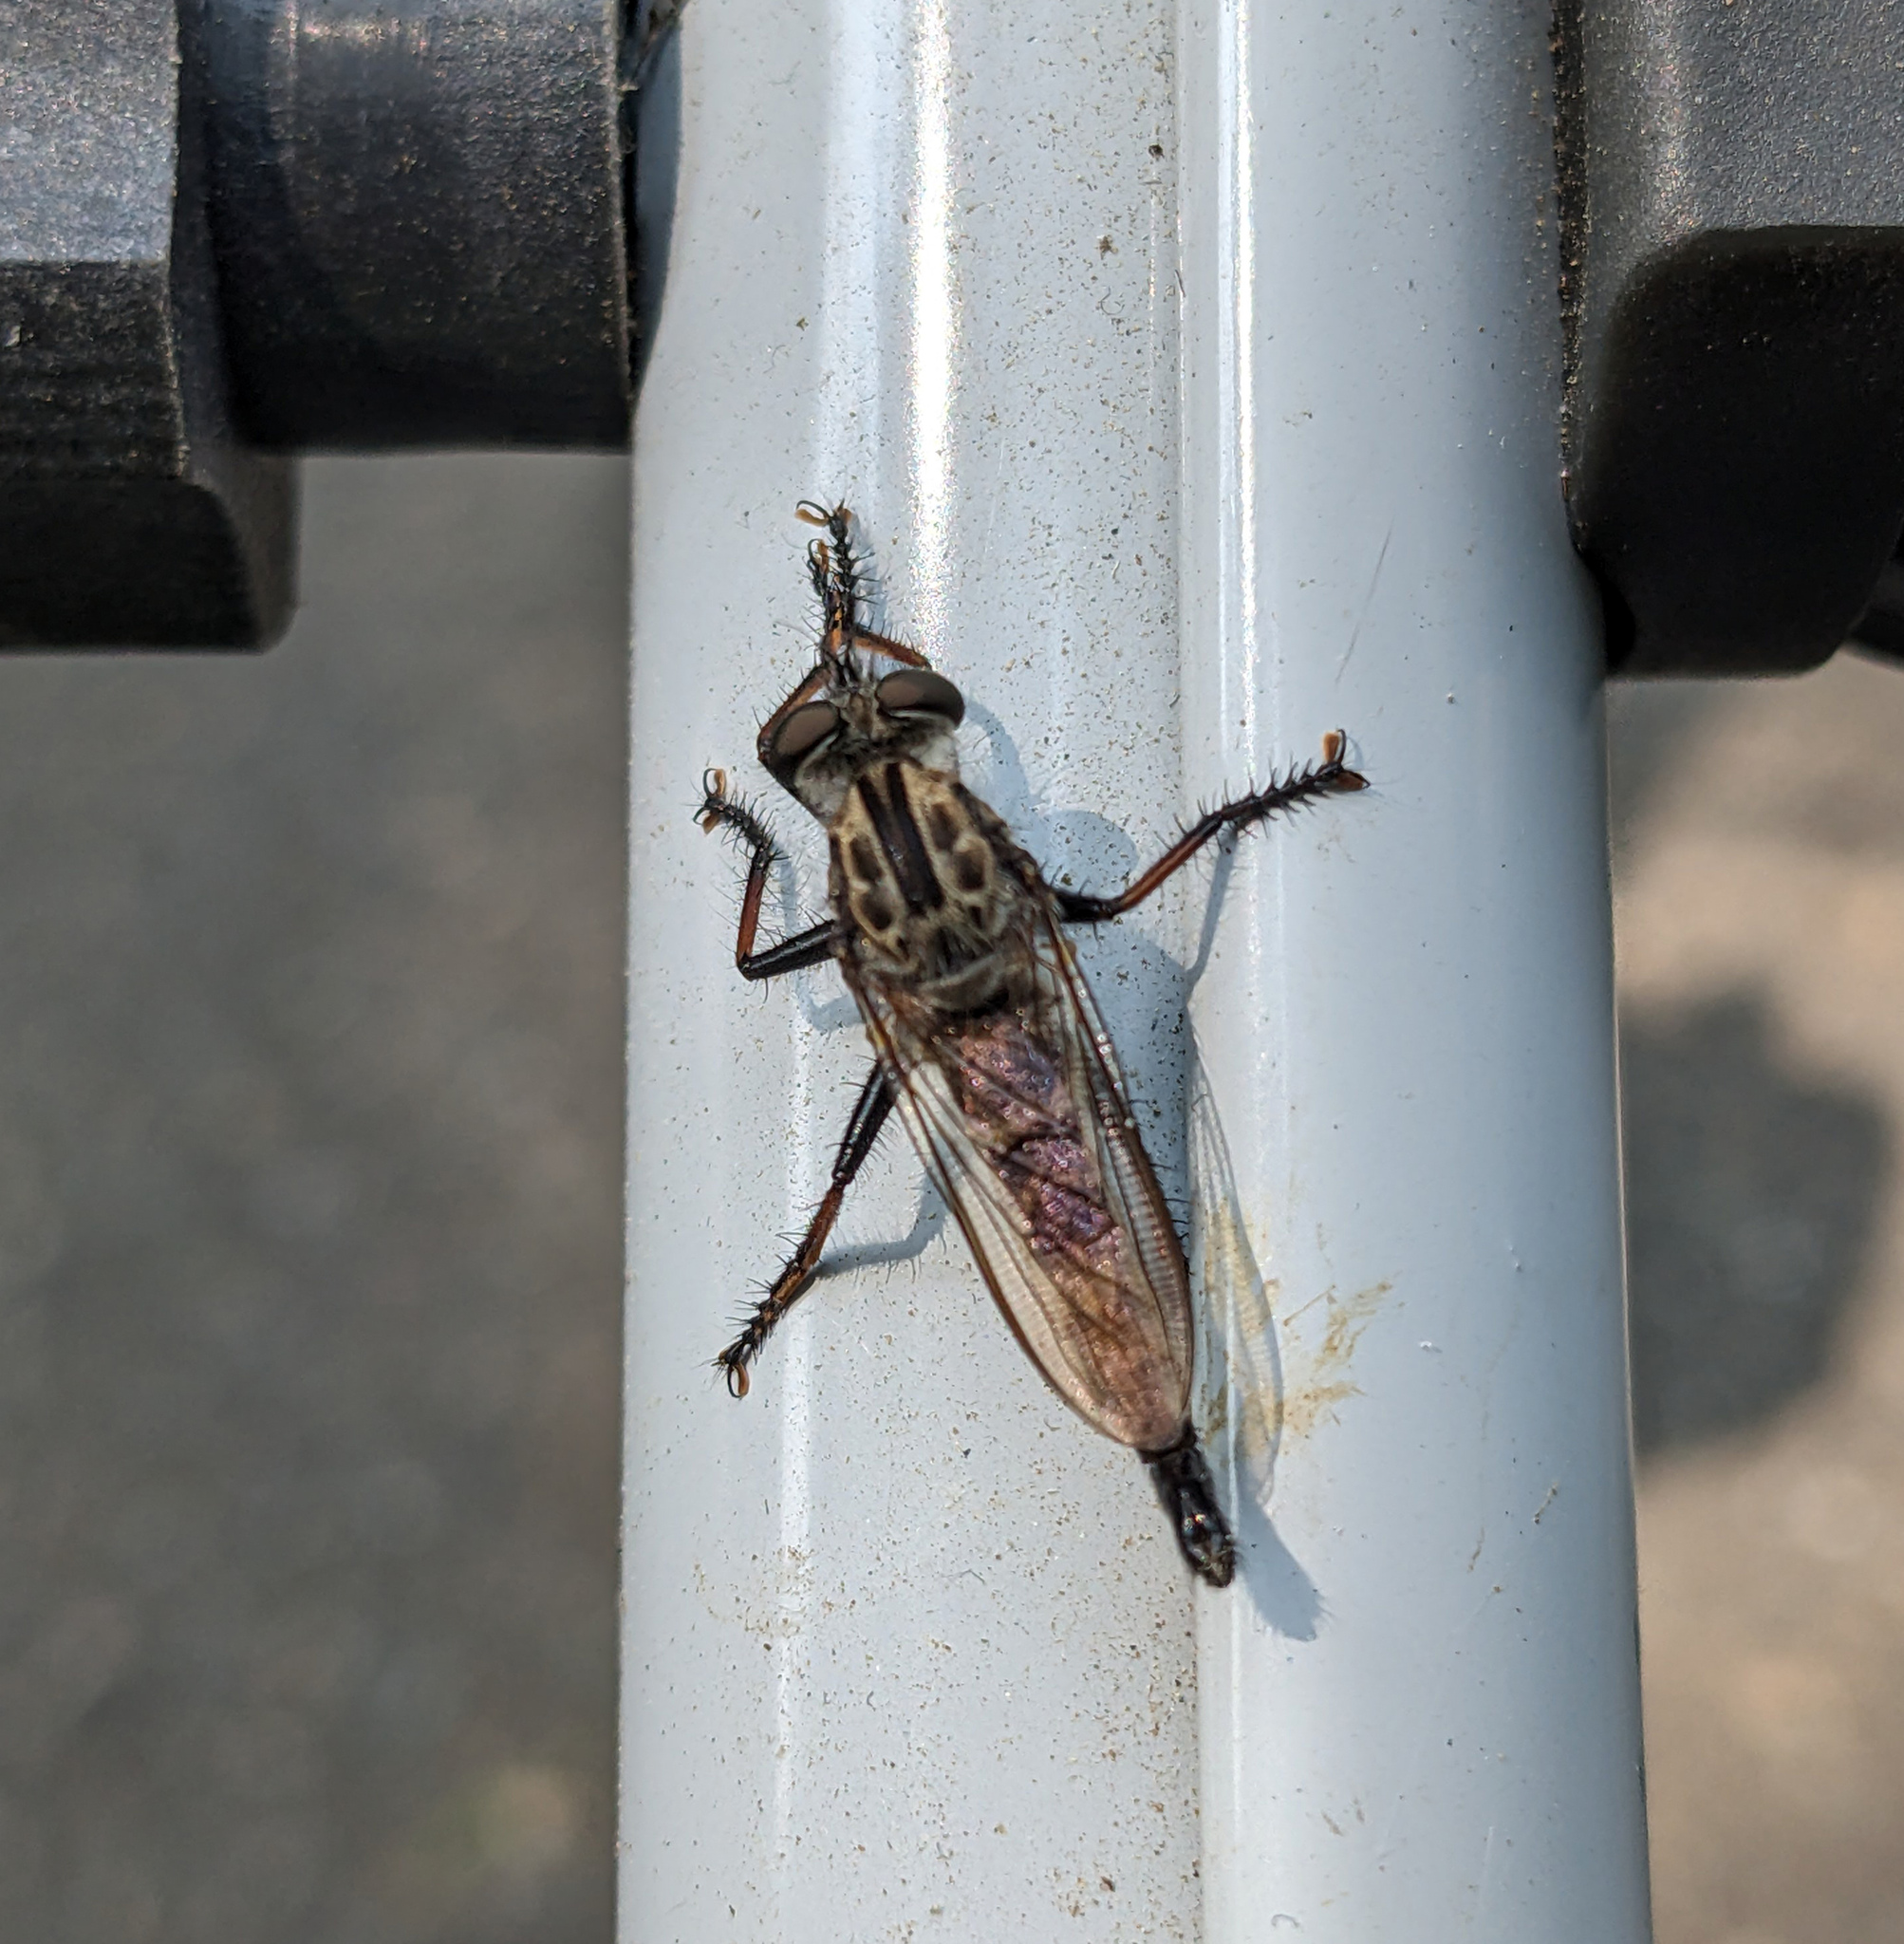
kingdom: Animalia
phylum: Arthropoda
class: Insecta
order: Diptera
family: Asilidae
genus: Efferia
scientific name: Efferia aestuans
